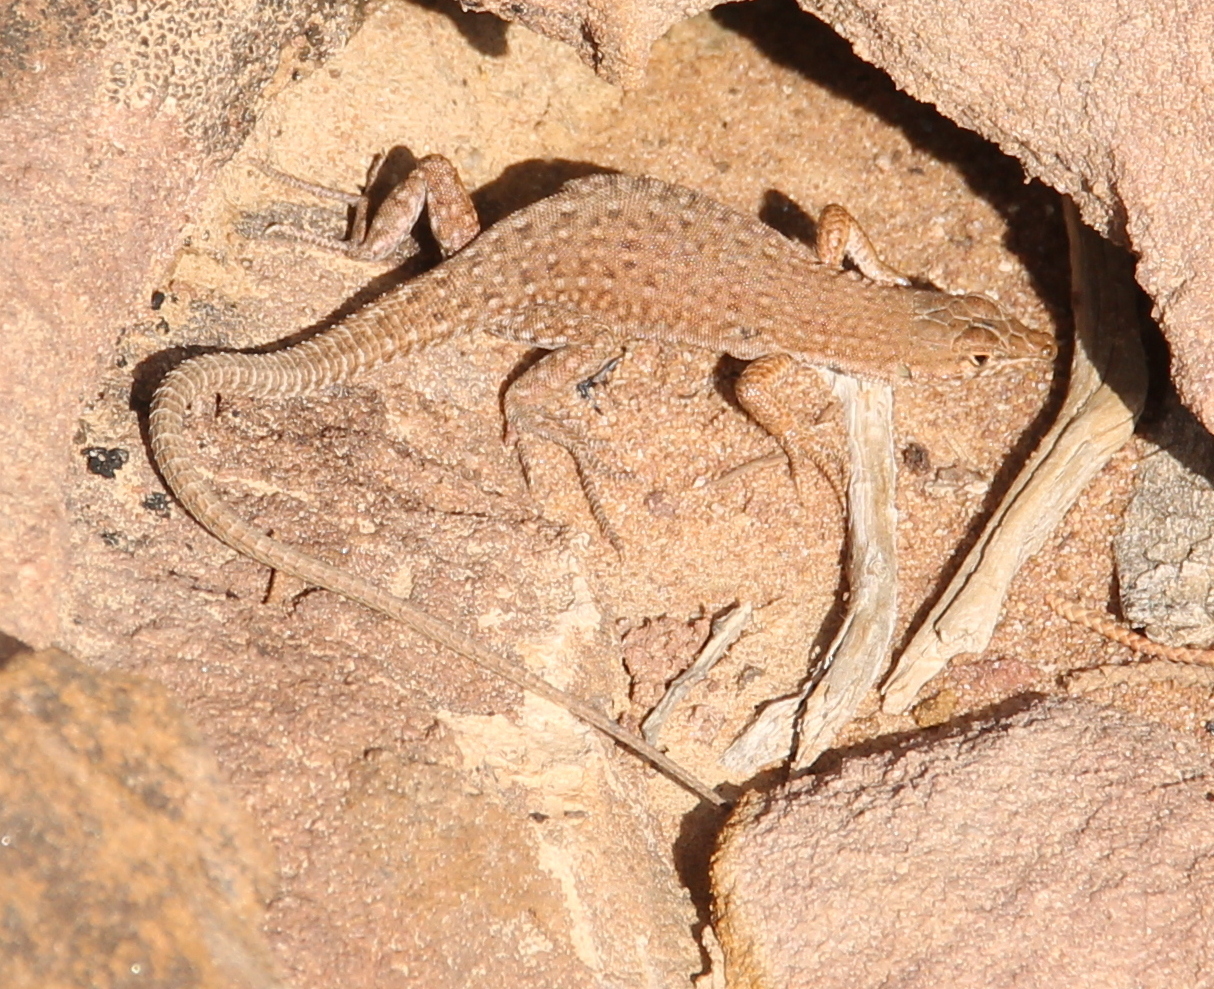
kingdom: Animalia
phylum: Chordata
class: Squamata
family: Lacertidae
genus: Mesalina
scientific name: Mesalina bahaeldini
